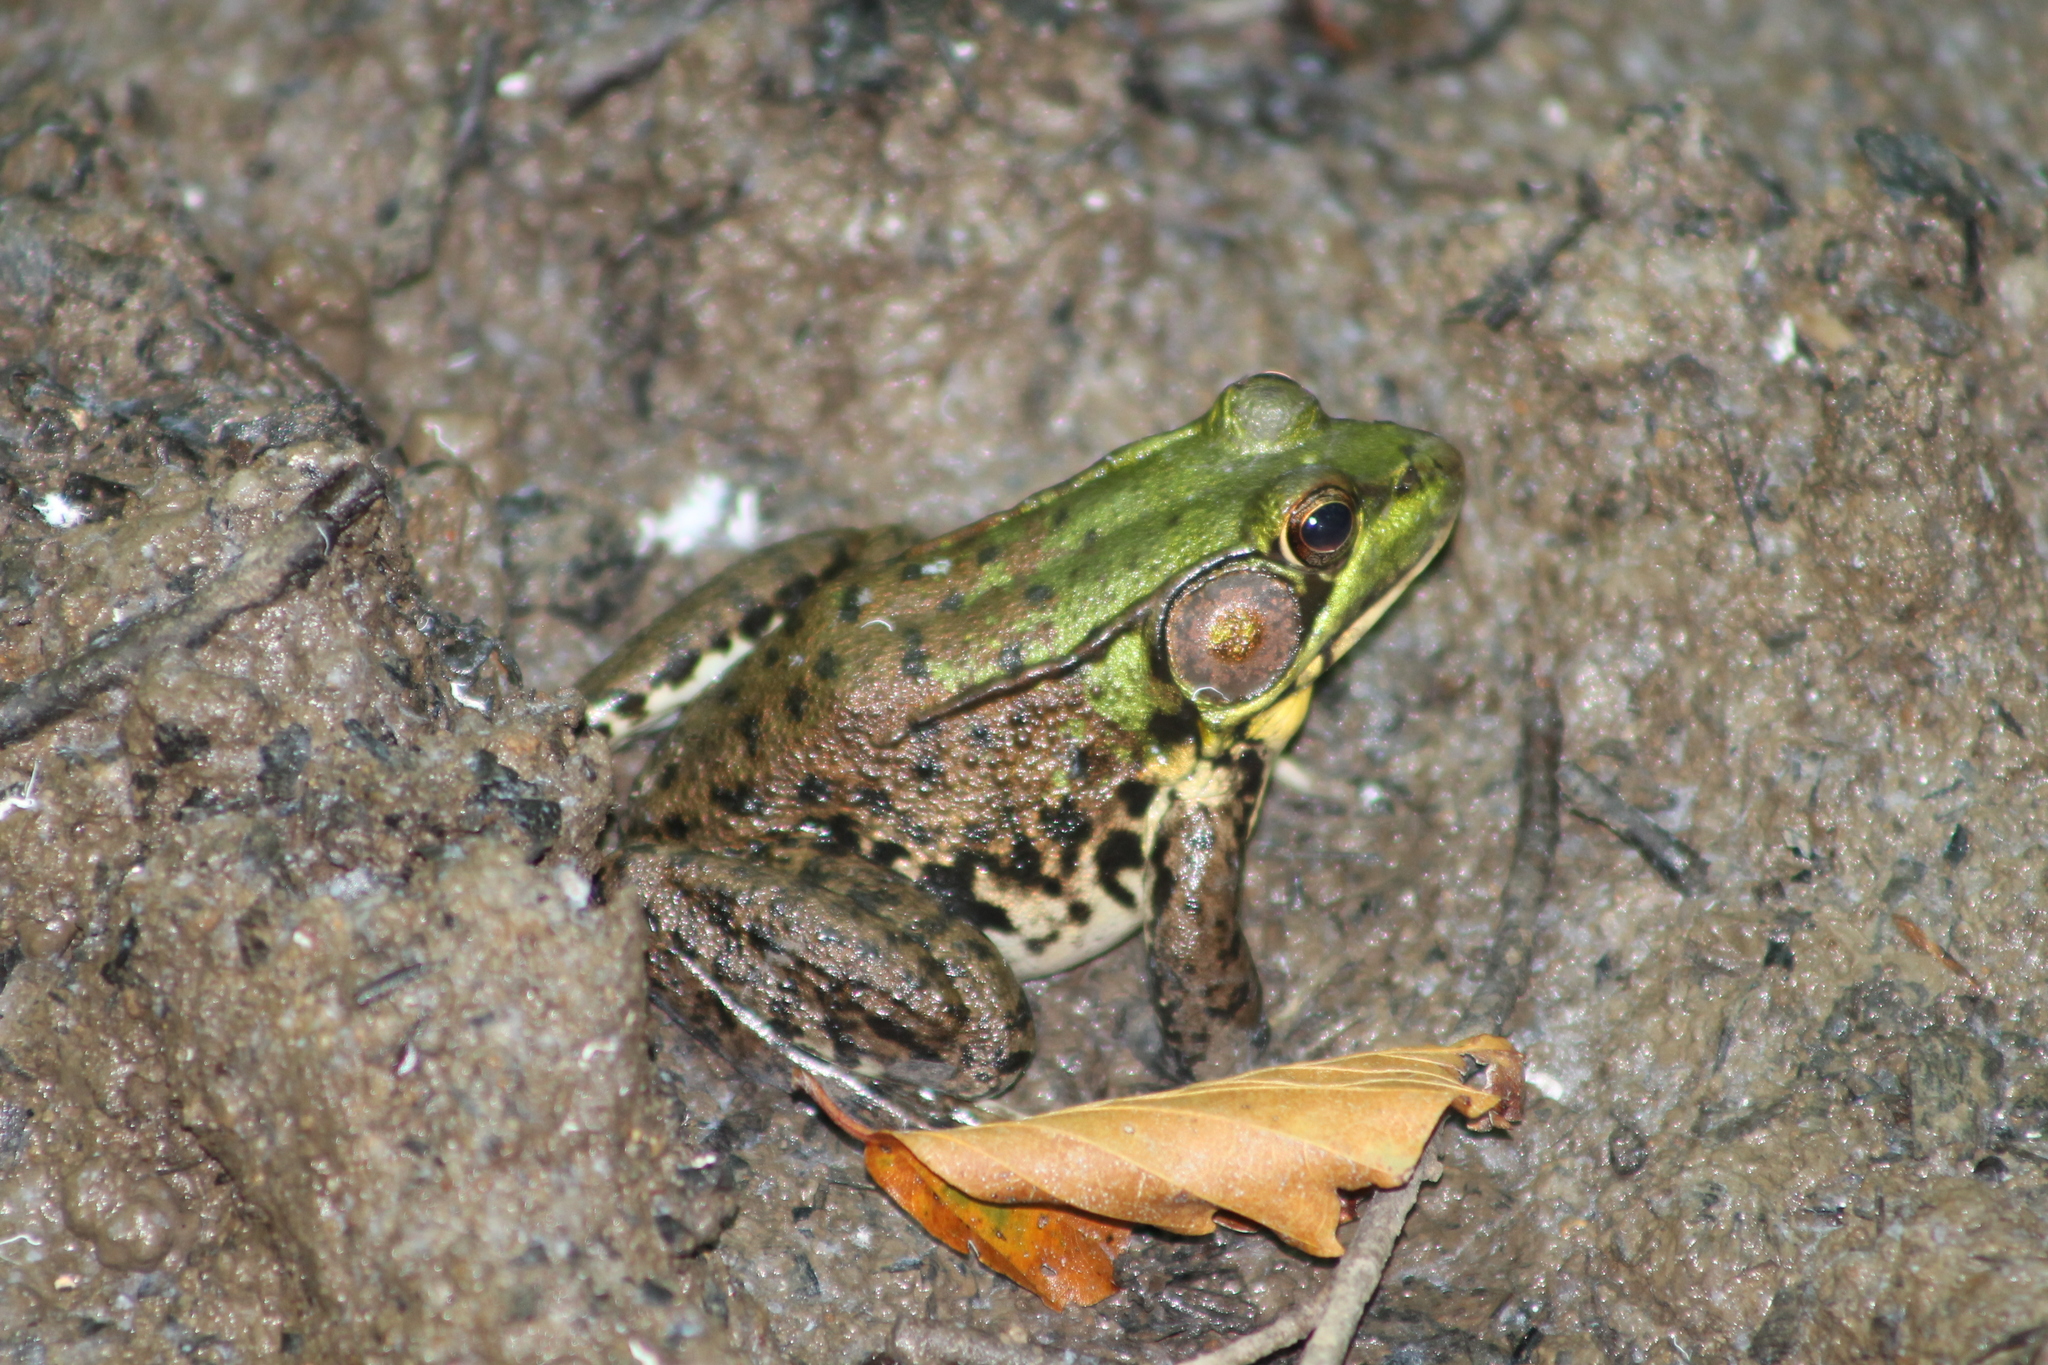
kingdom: Animalia
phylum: Chordata
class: Amphibia
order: Anura
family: Ranidae
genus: Lithobates
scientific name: Lithobates clamitans
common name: Green frog
